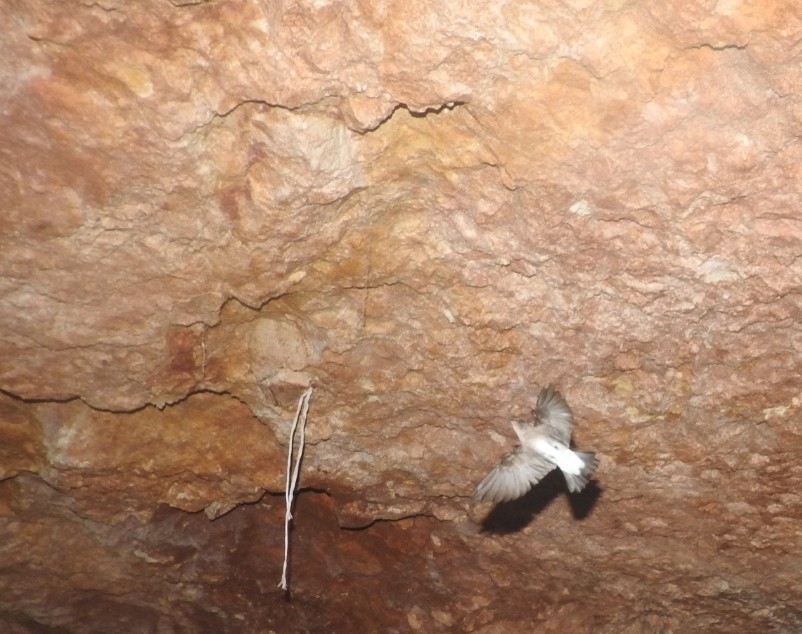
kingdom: Animalia
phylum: Chordata
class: Aves
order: Passeriformes
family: Hirundinidae
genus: Stelgidopteryx
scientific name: Stelgidopteryx serripennis
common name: Northern rough-winged swallow
